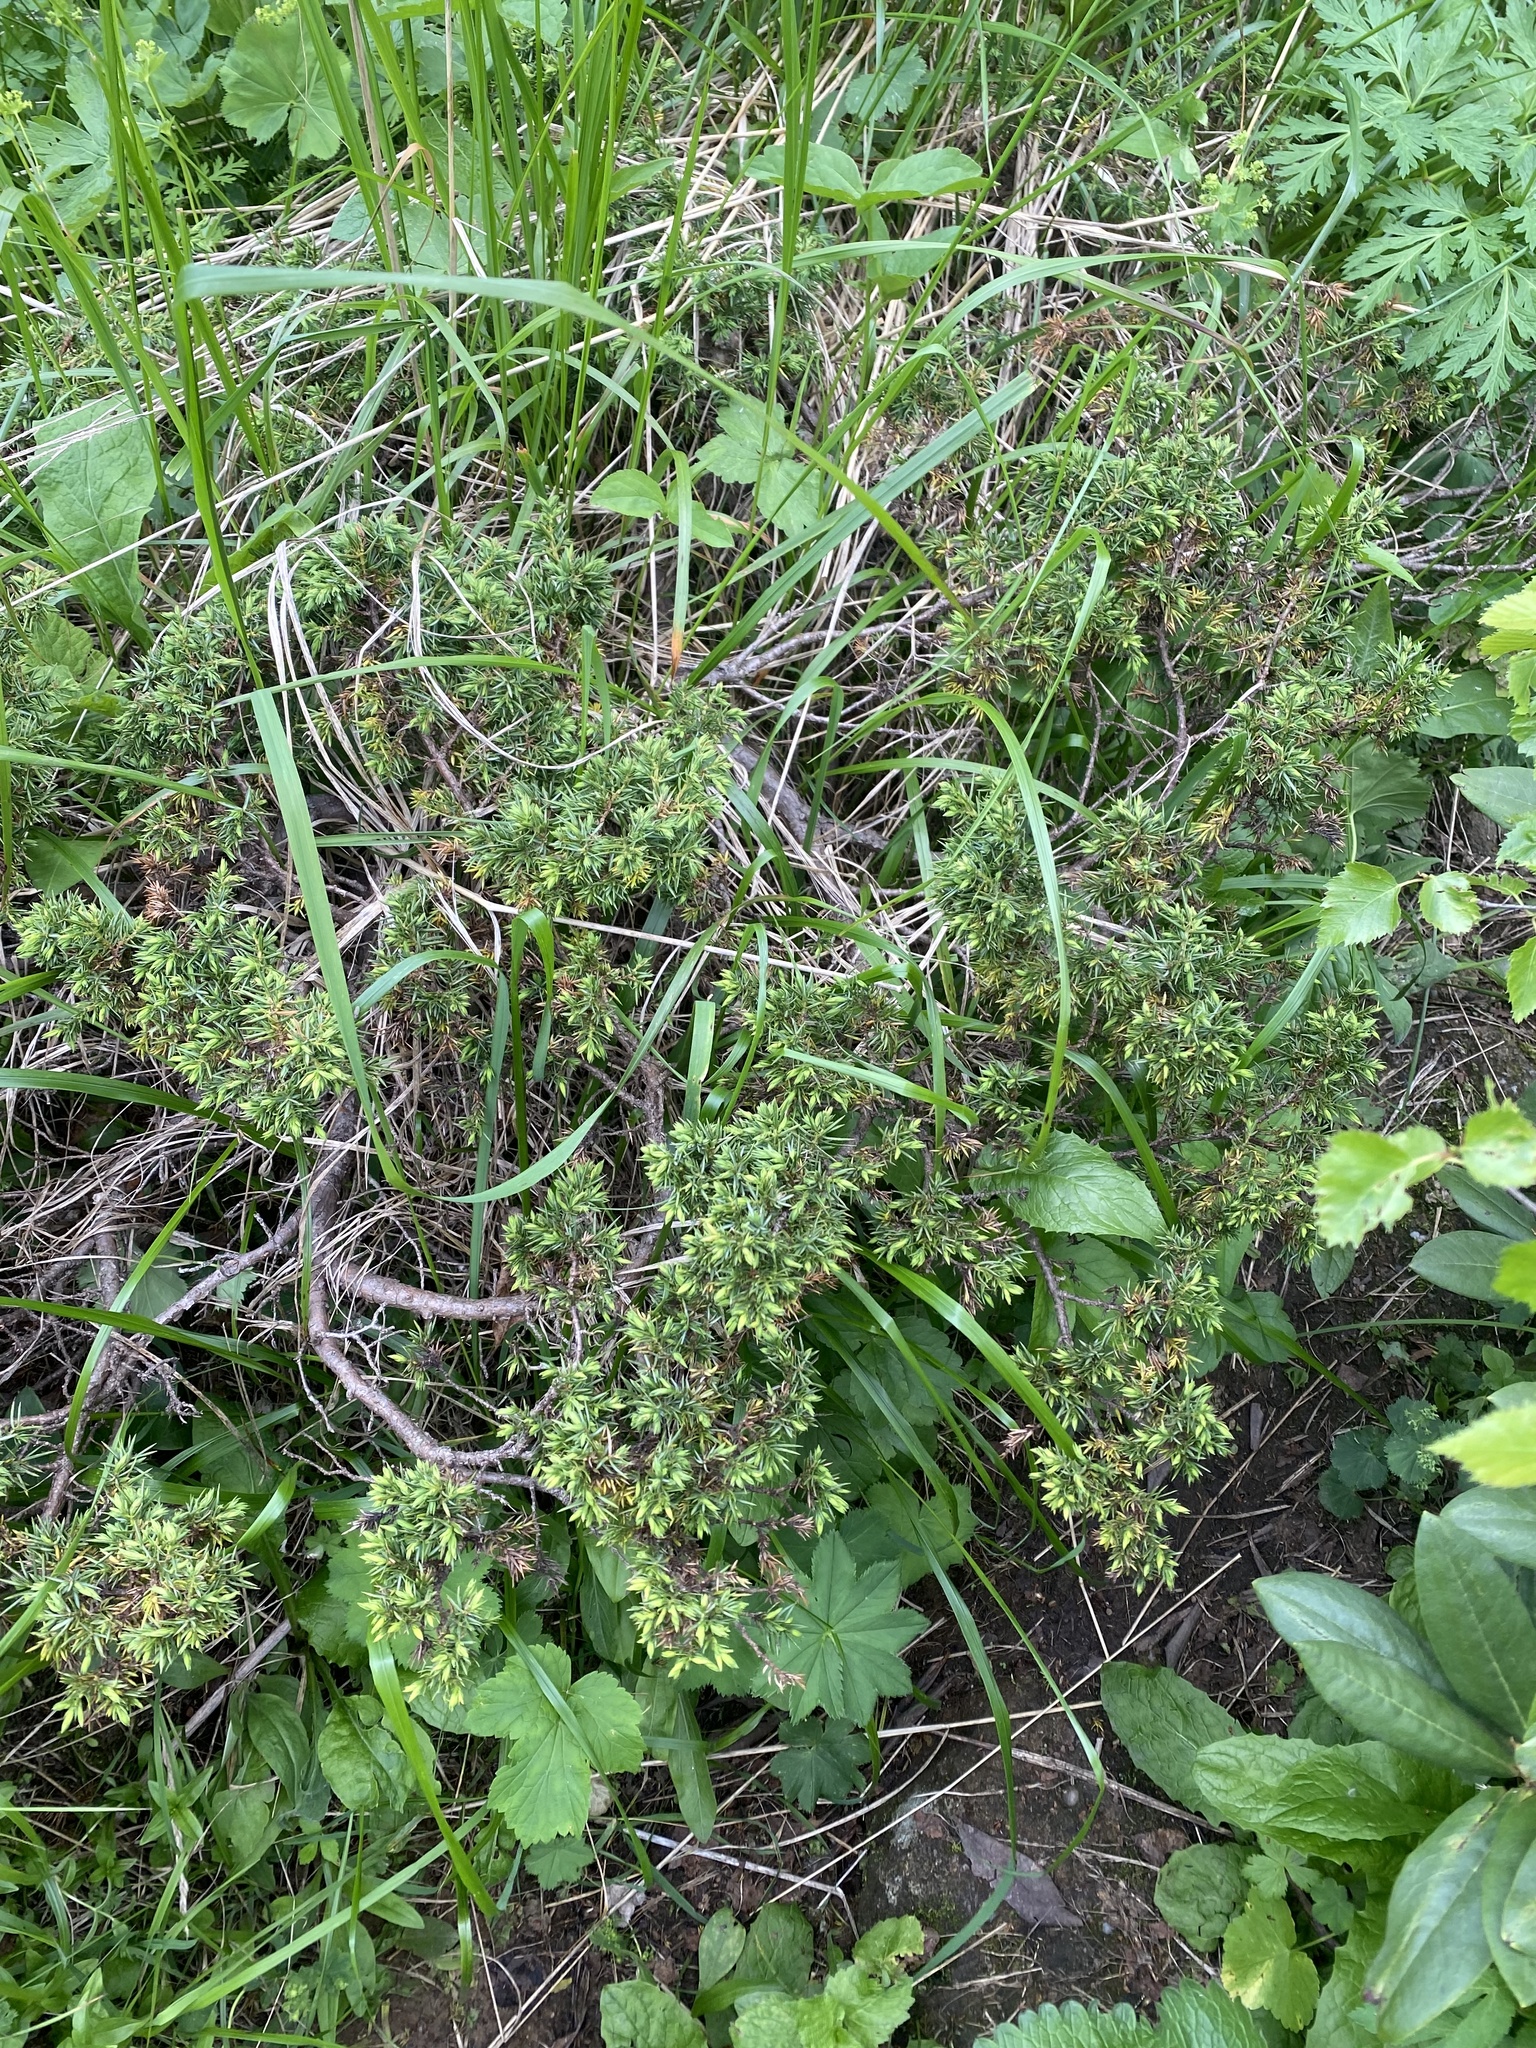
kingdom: Plantae
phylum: Tracheophyta
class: Pinopsida
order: Pinales
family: Cupressaceae
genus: Juniperus
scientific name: Juniperus communis
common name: Common juniper
